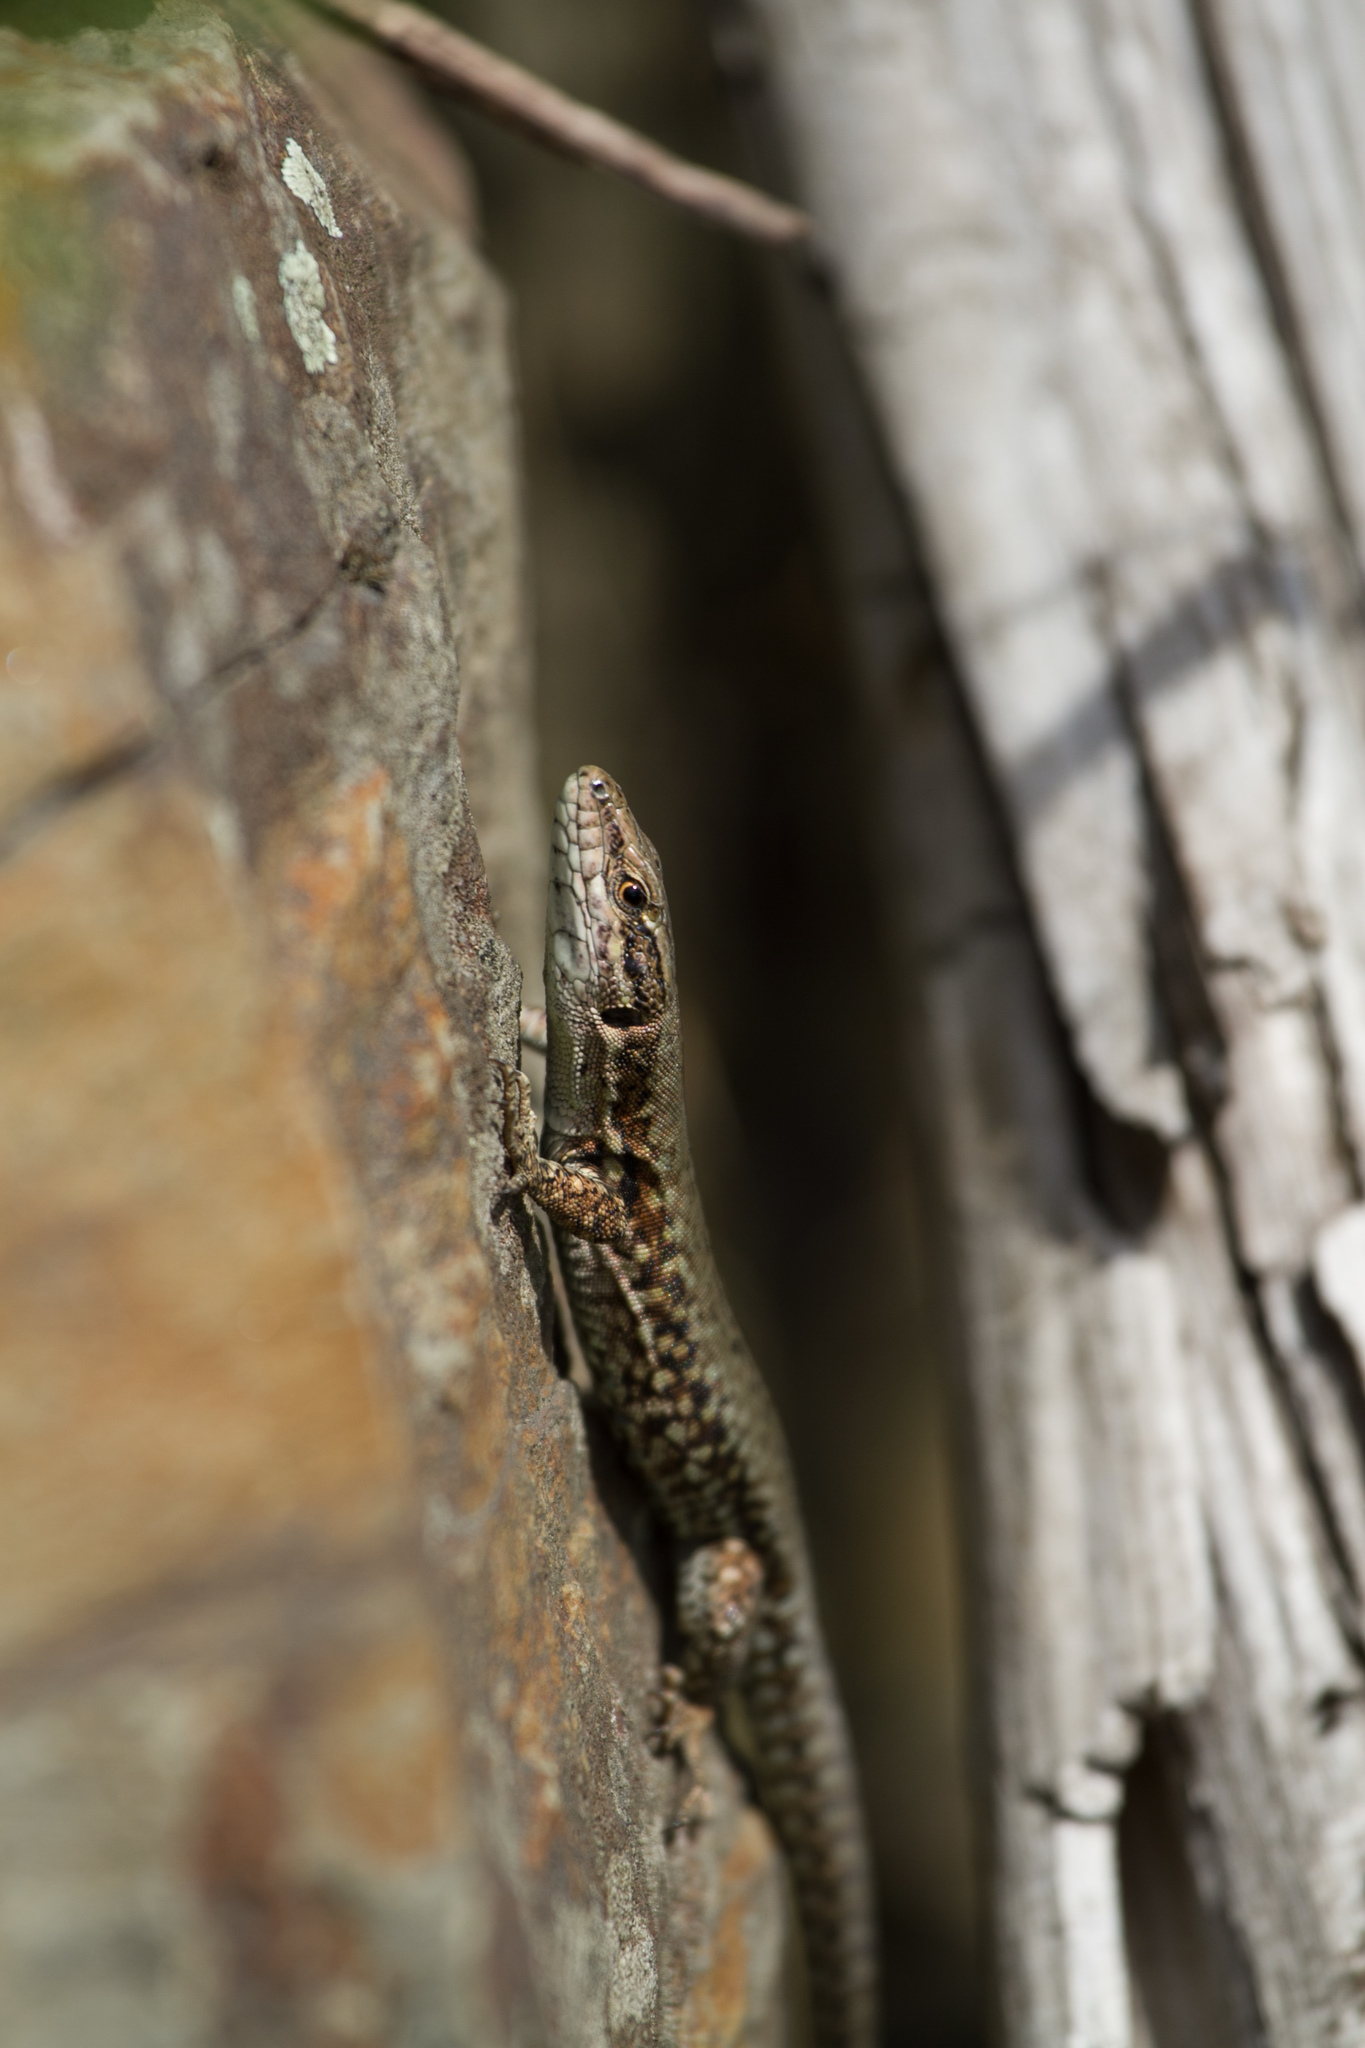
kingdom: Animalia
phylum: Chordata
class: Squamata
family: Lacertidae
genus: Podarcis
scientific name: Podarcis muralis
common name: Common wall lizard
